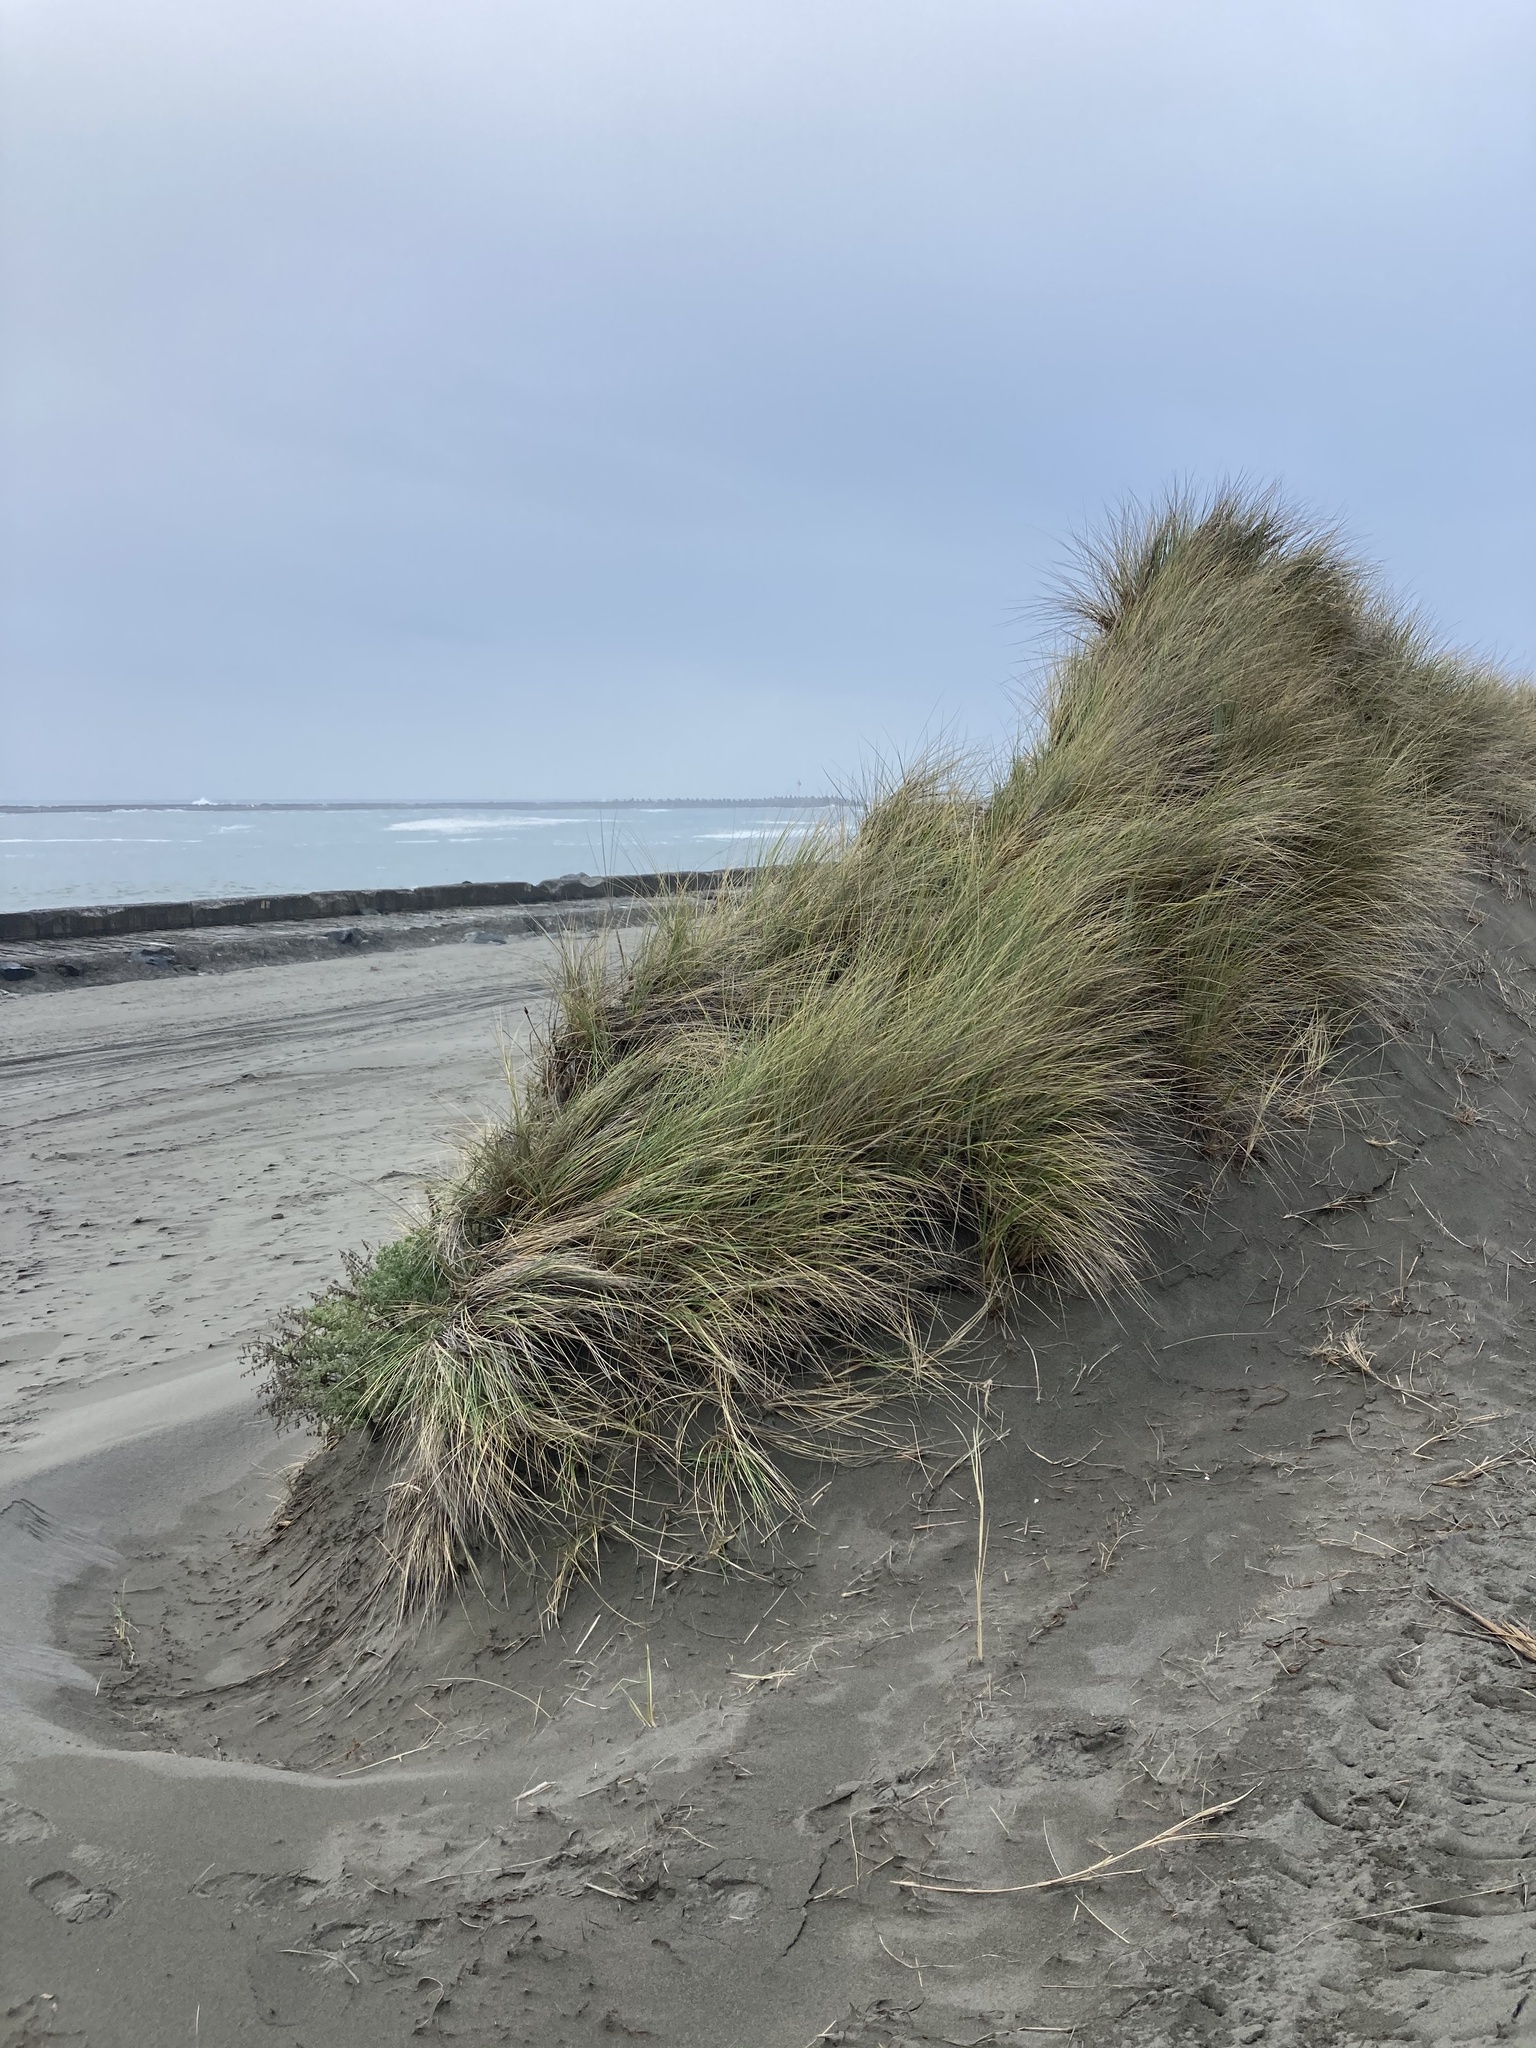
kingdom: Plantae
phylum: Tracheophyta
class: Liliopsida
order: Poales
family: Poaceae
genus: Calamagrostis
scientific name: Calamagrostis arenaria
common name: European beachgrass
